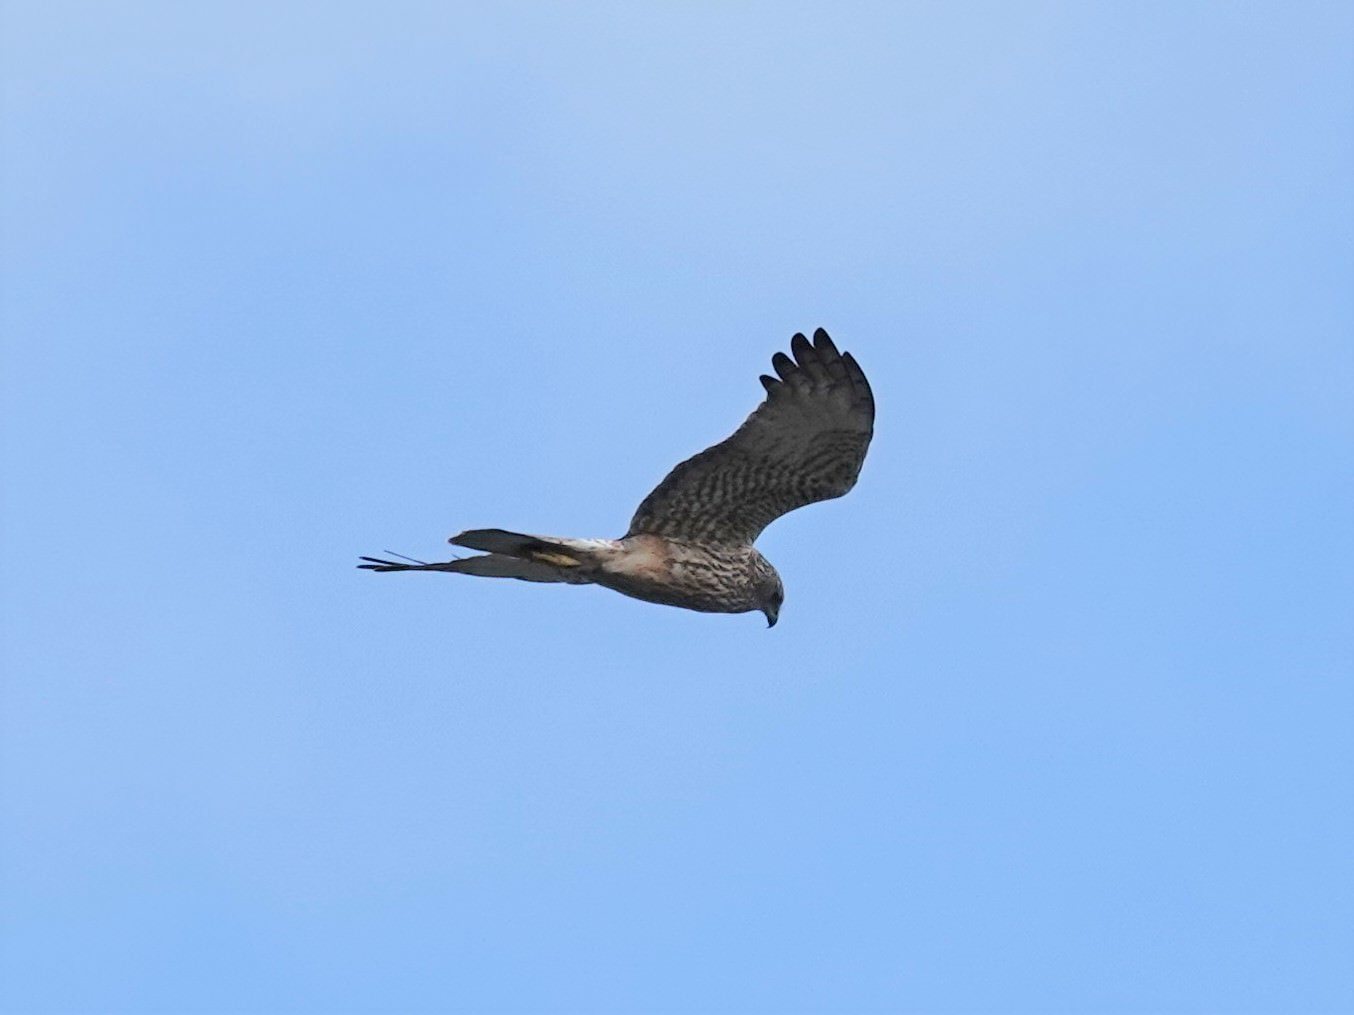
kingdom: Animalia
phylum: Chordata
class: Aves
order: Accipitriformes
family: Accipitridae
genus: Circus
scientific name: Circus approximans
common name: Swamp harrier
